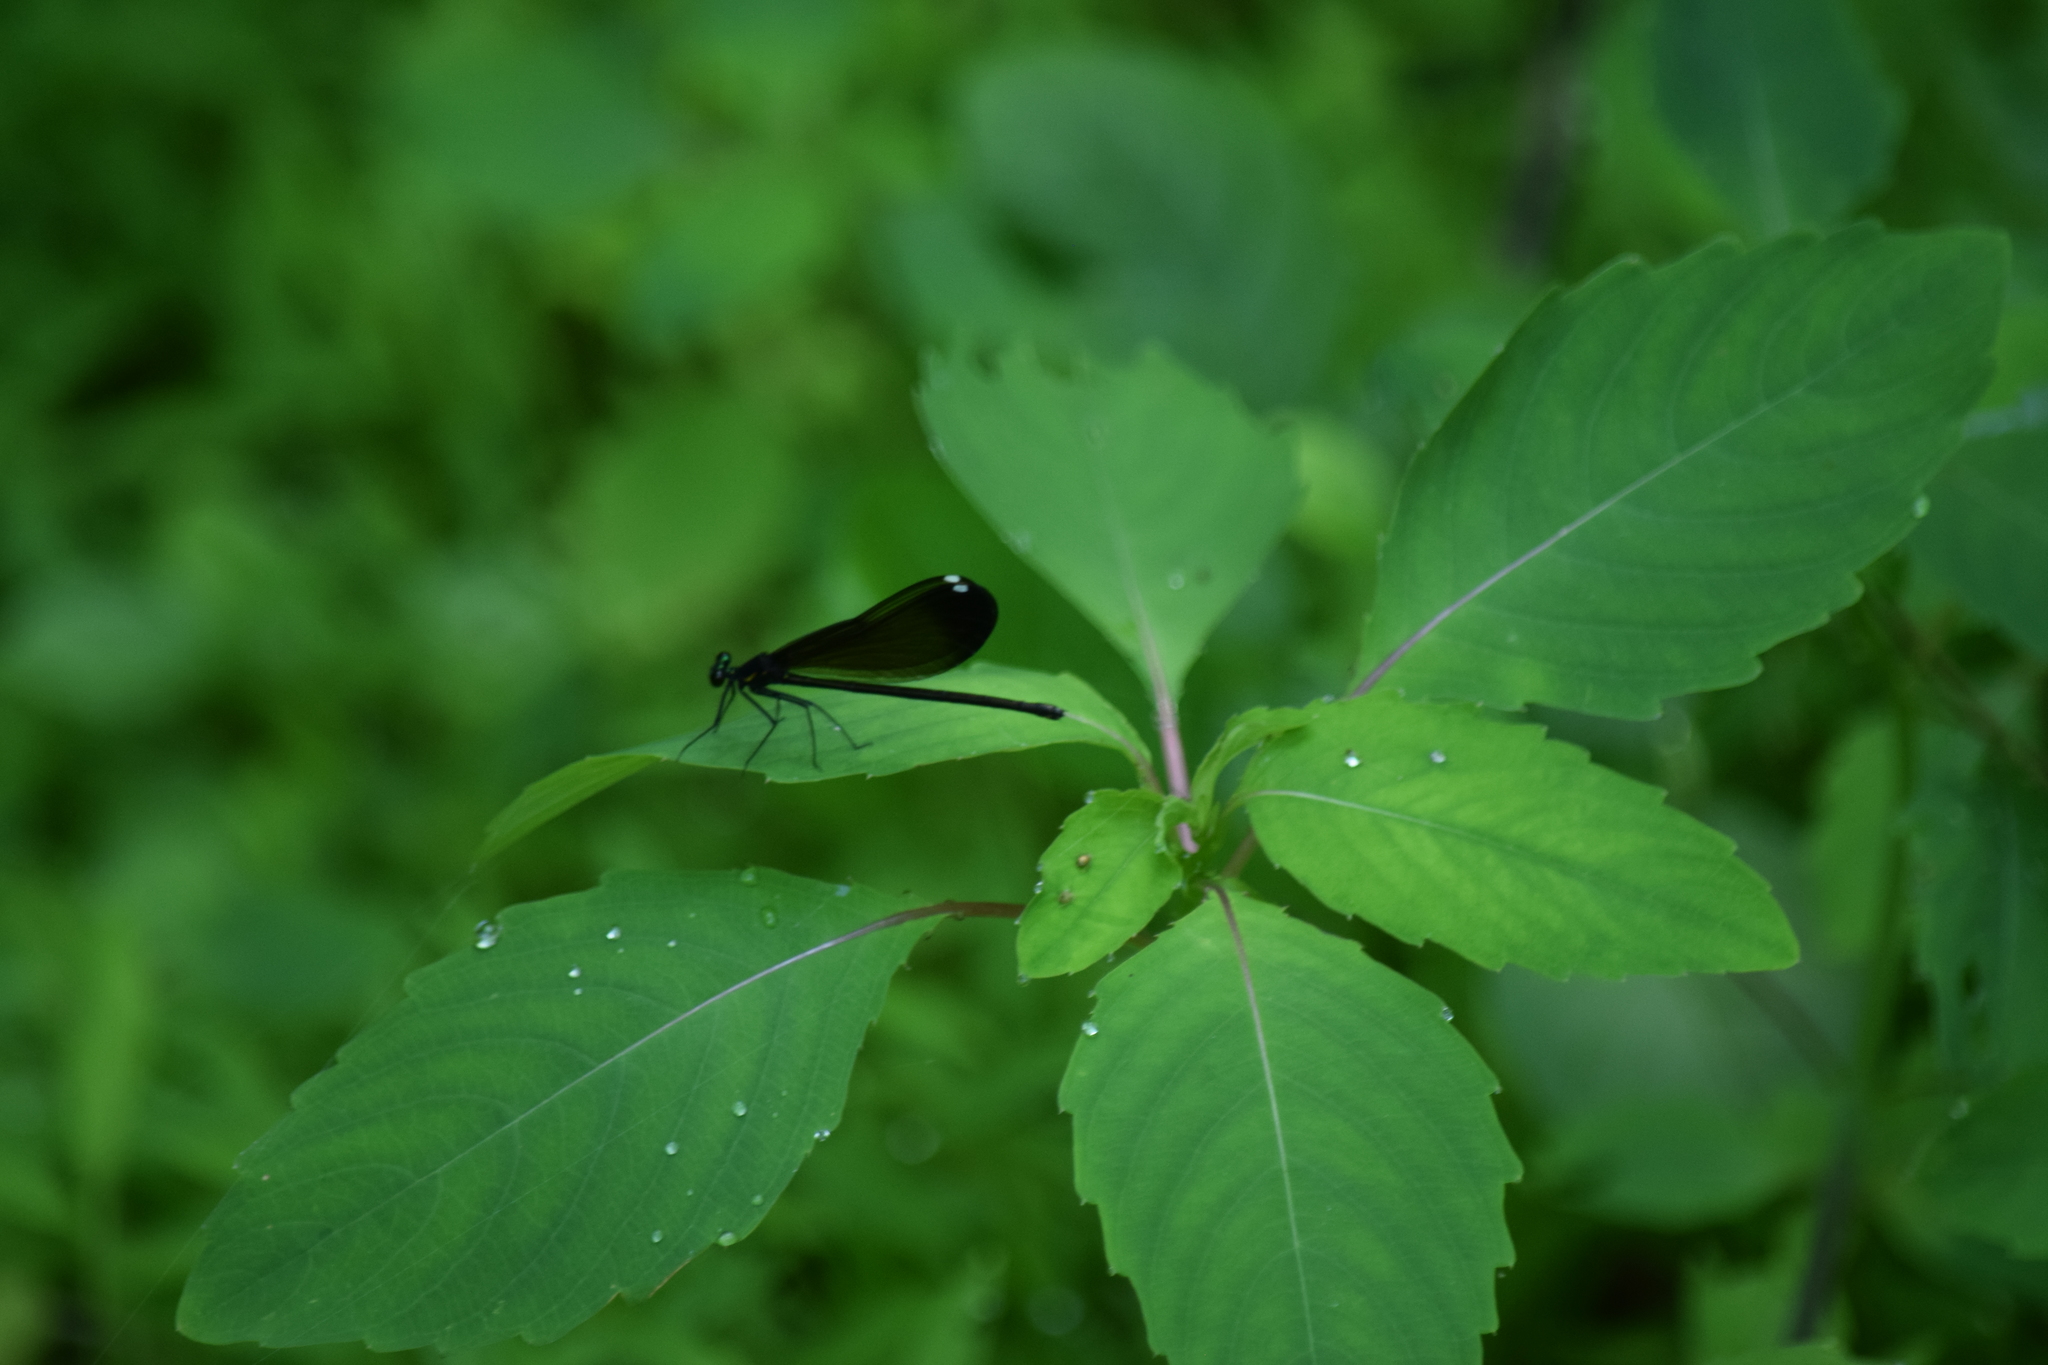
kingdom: Animalia
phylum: Arthropoda
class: Insecta
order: Odonata
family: Calopterygidae
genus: Calopteryx
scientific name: Calopteryx maculata
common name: Ebony jewelwing
